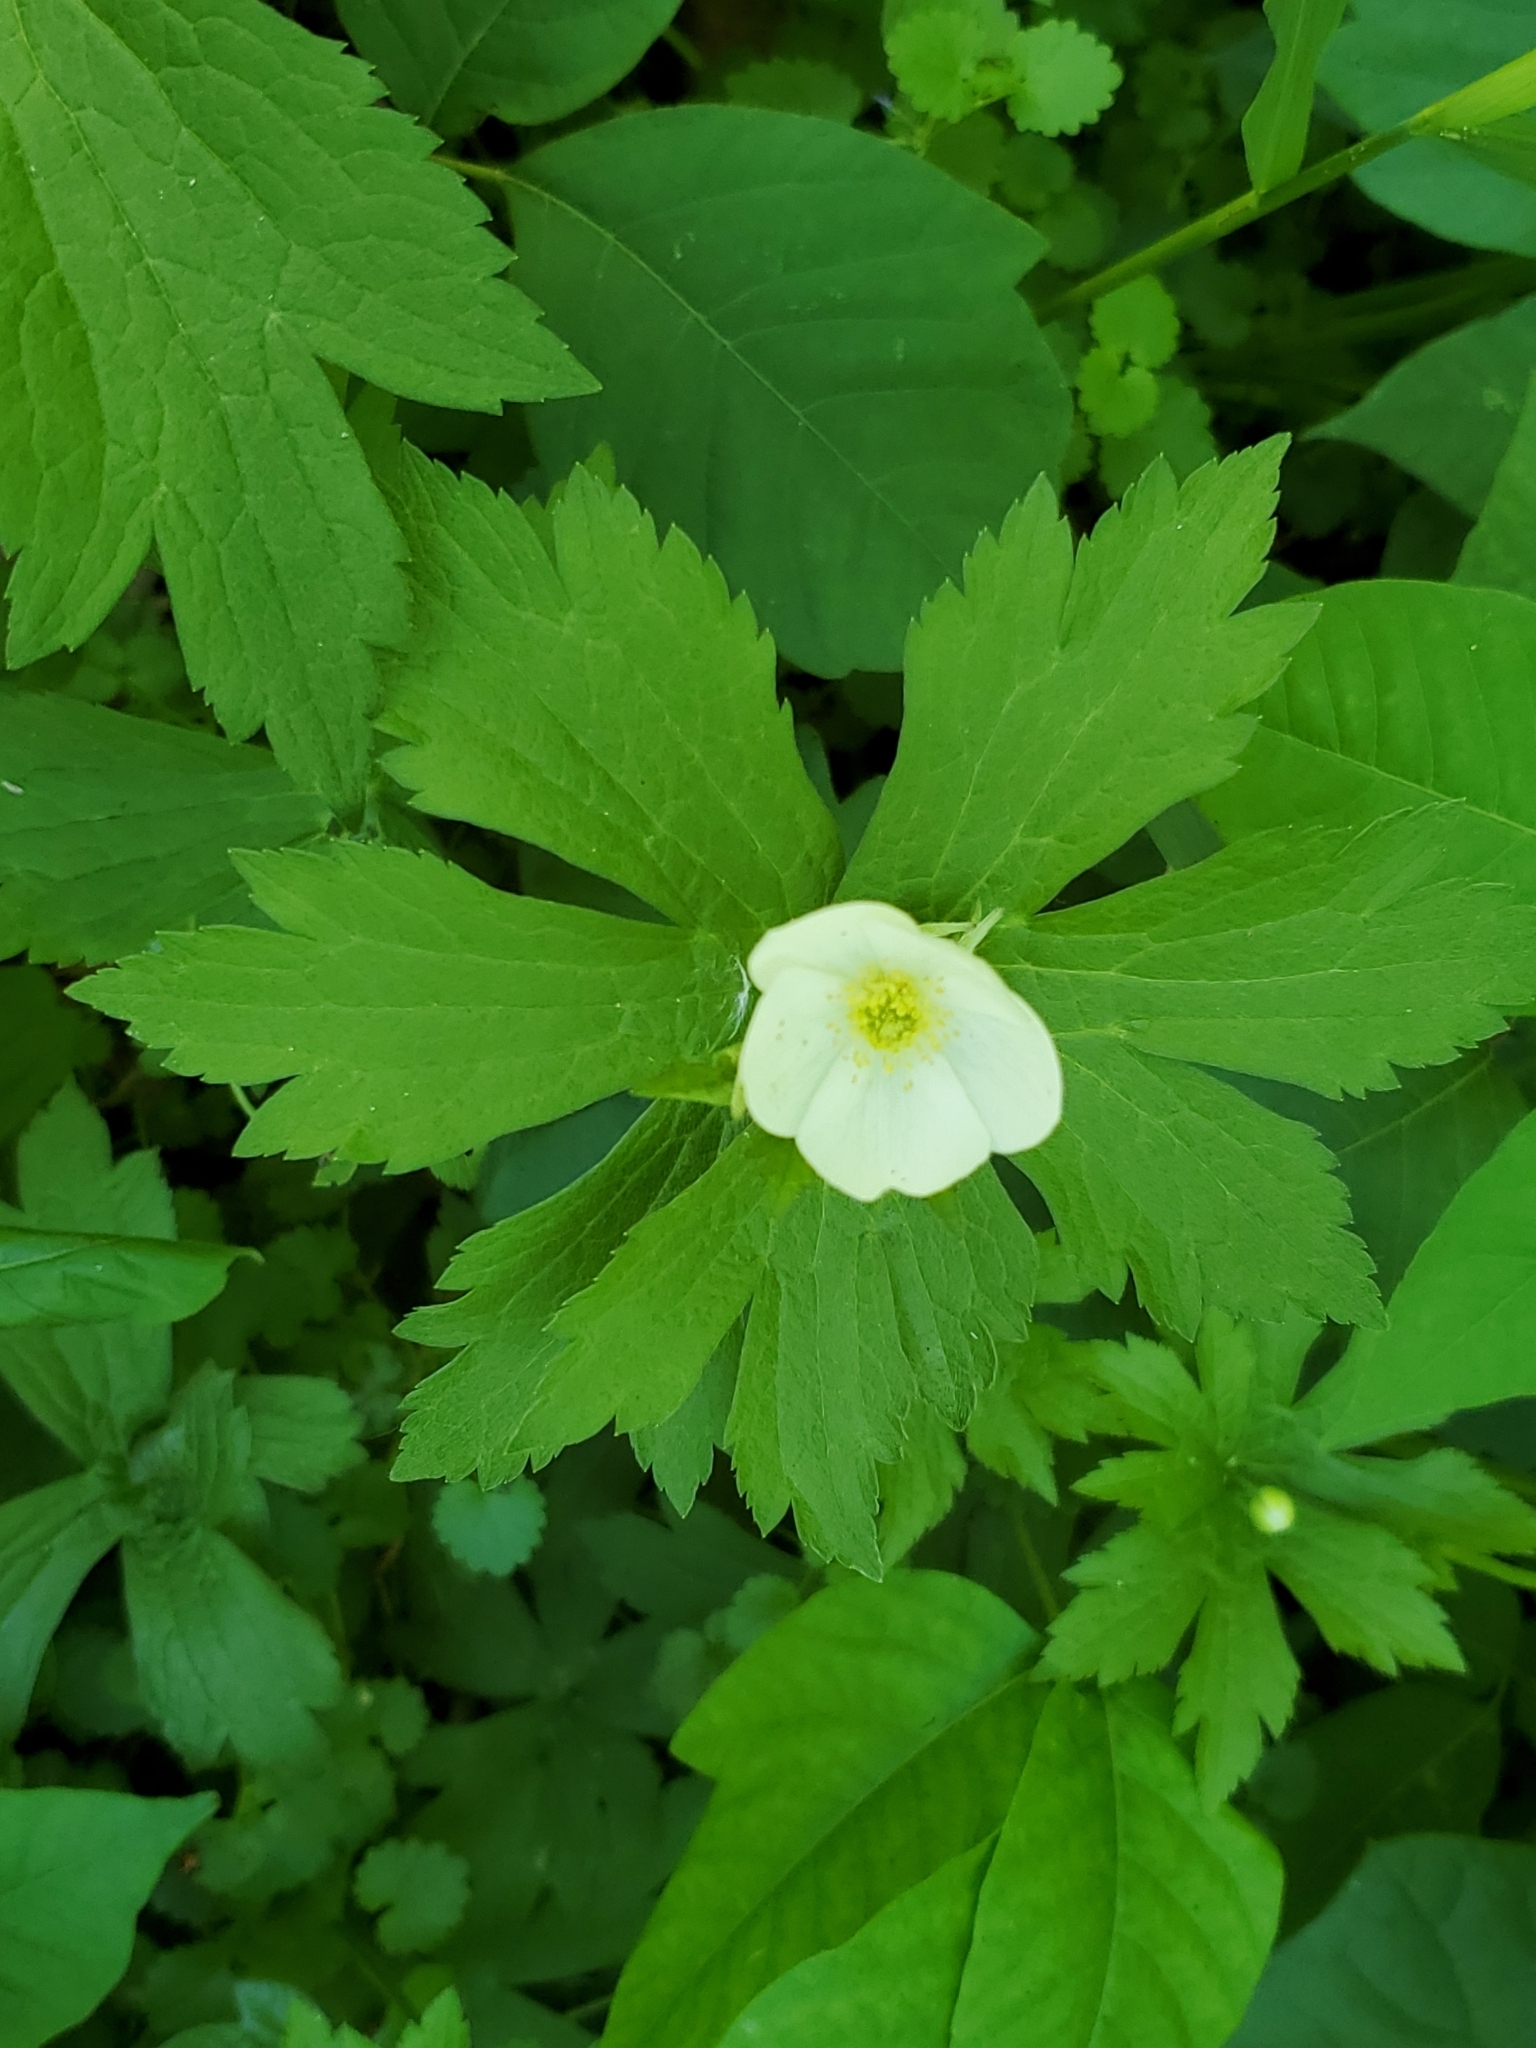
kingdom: Plantae
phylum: Tracheophyta
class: Magnoliopsida
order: Ranunculales
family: Ranunculaceae
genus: Anemonastrum
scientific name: Anemonastrum canadense
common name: Canada anemone
